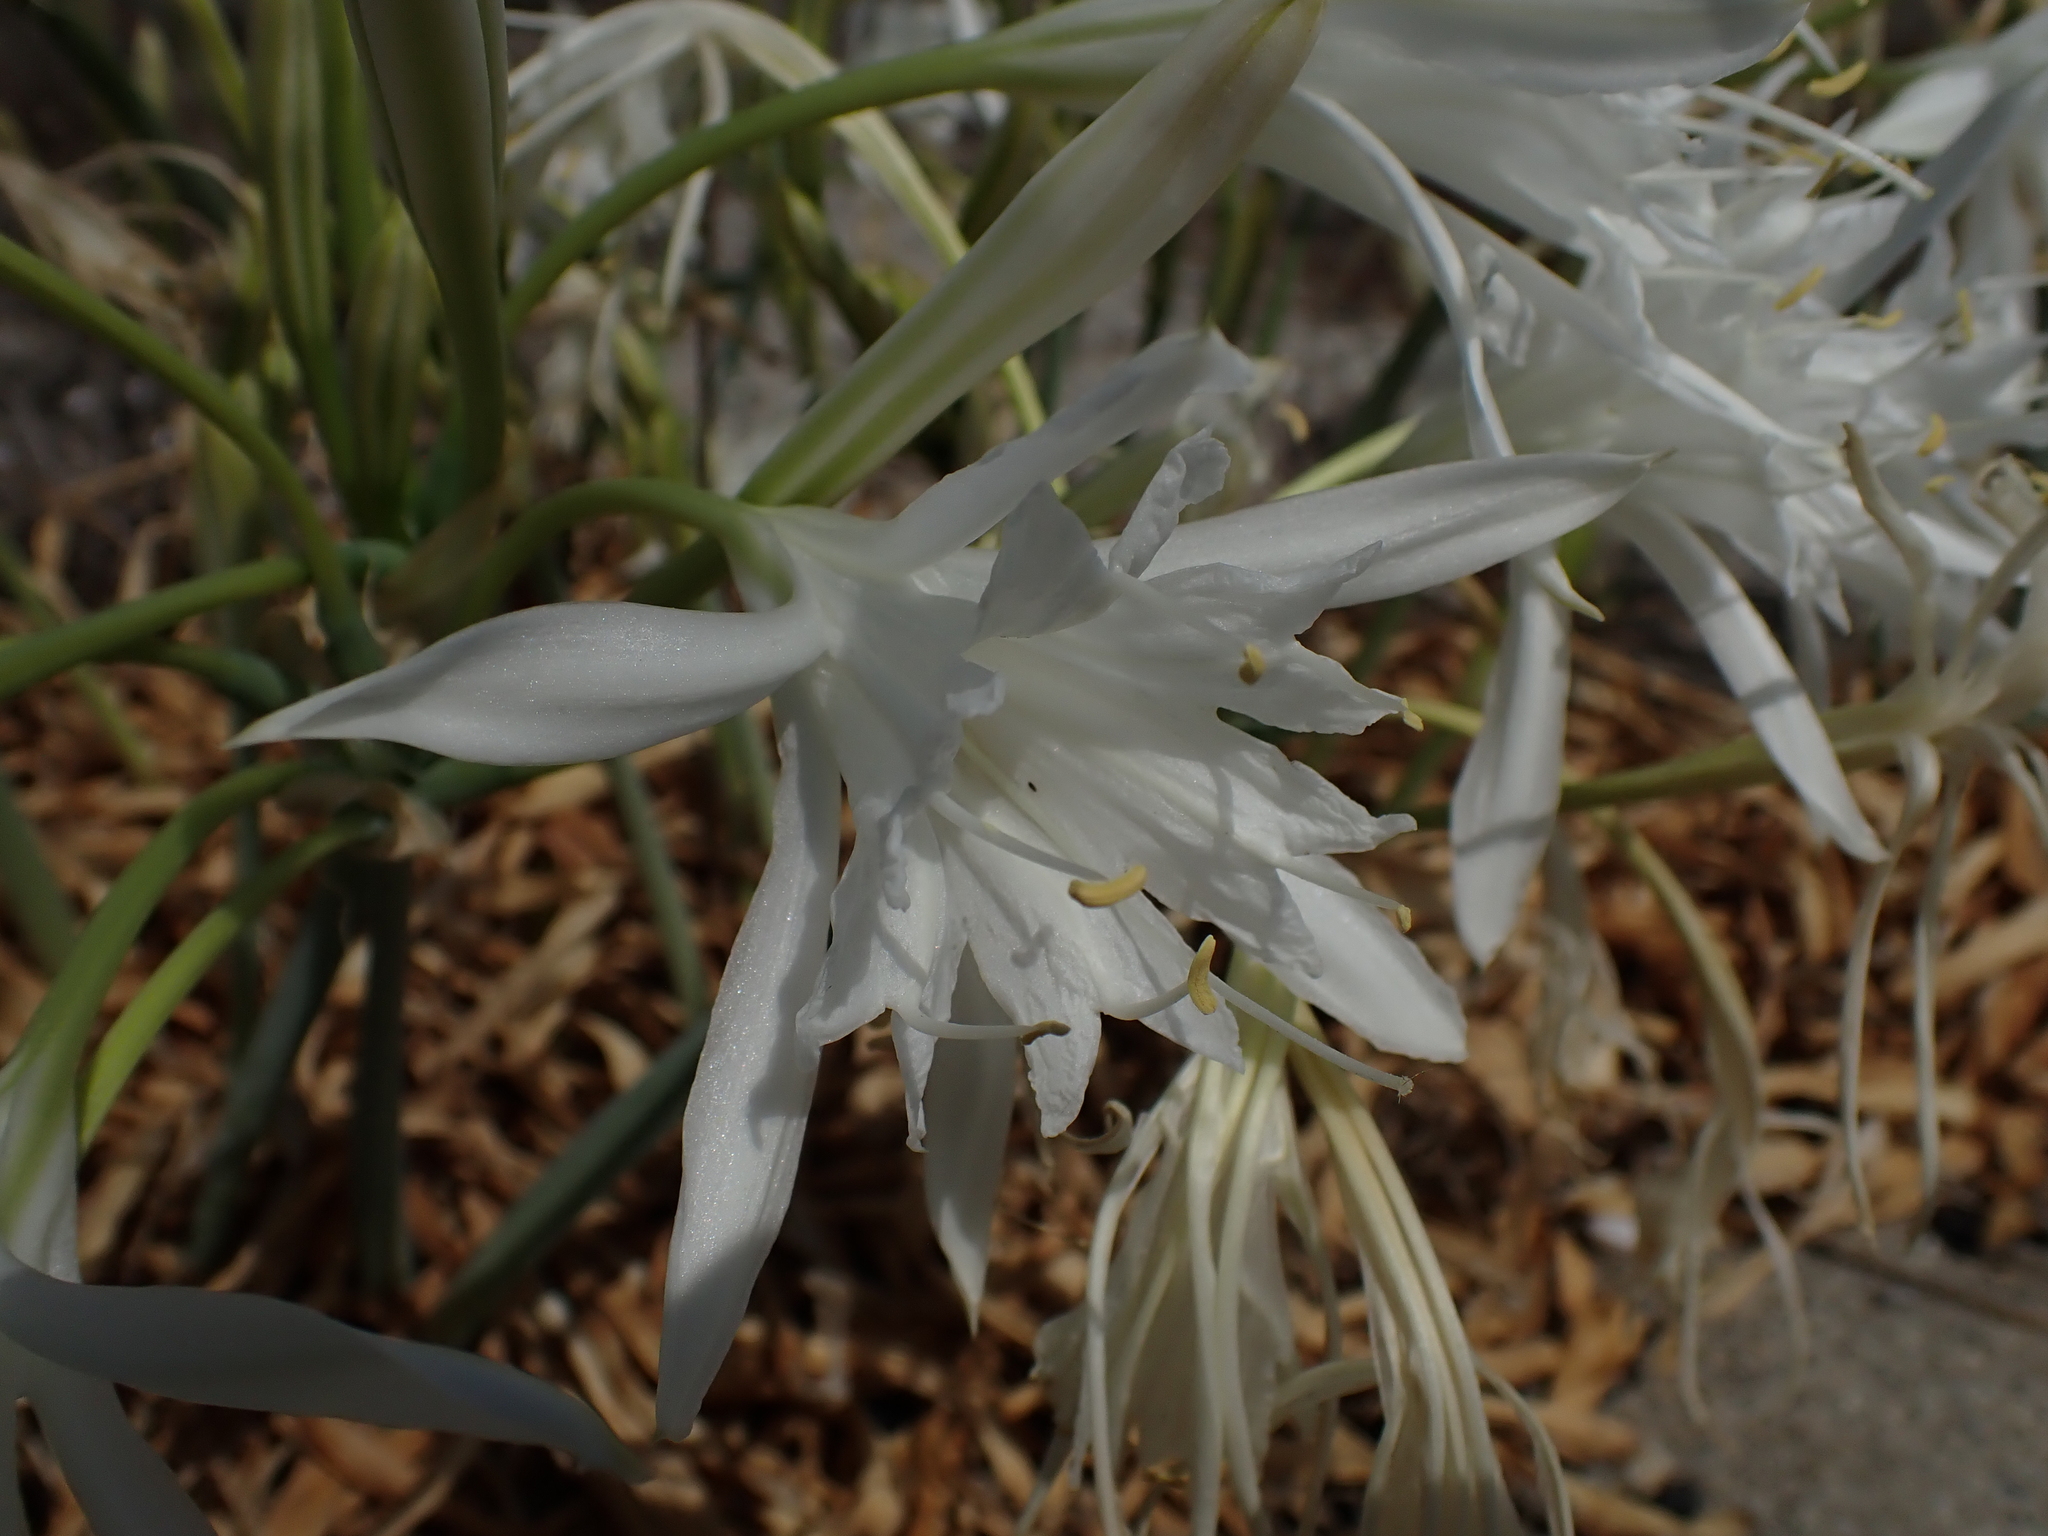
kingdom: Plantae
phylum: Tracheophyta
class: Liliopsida
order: Asparagales
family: Amaryllidaceae
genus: Pancratium
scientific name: Pancratium maritimum
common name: Sea-daffodil
